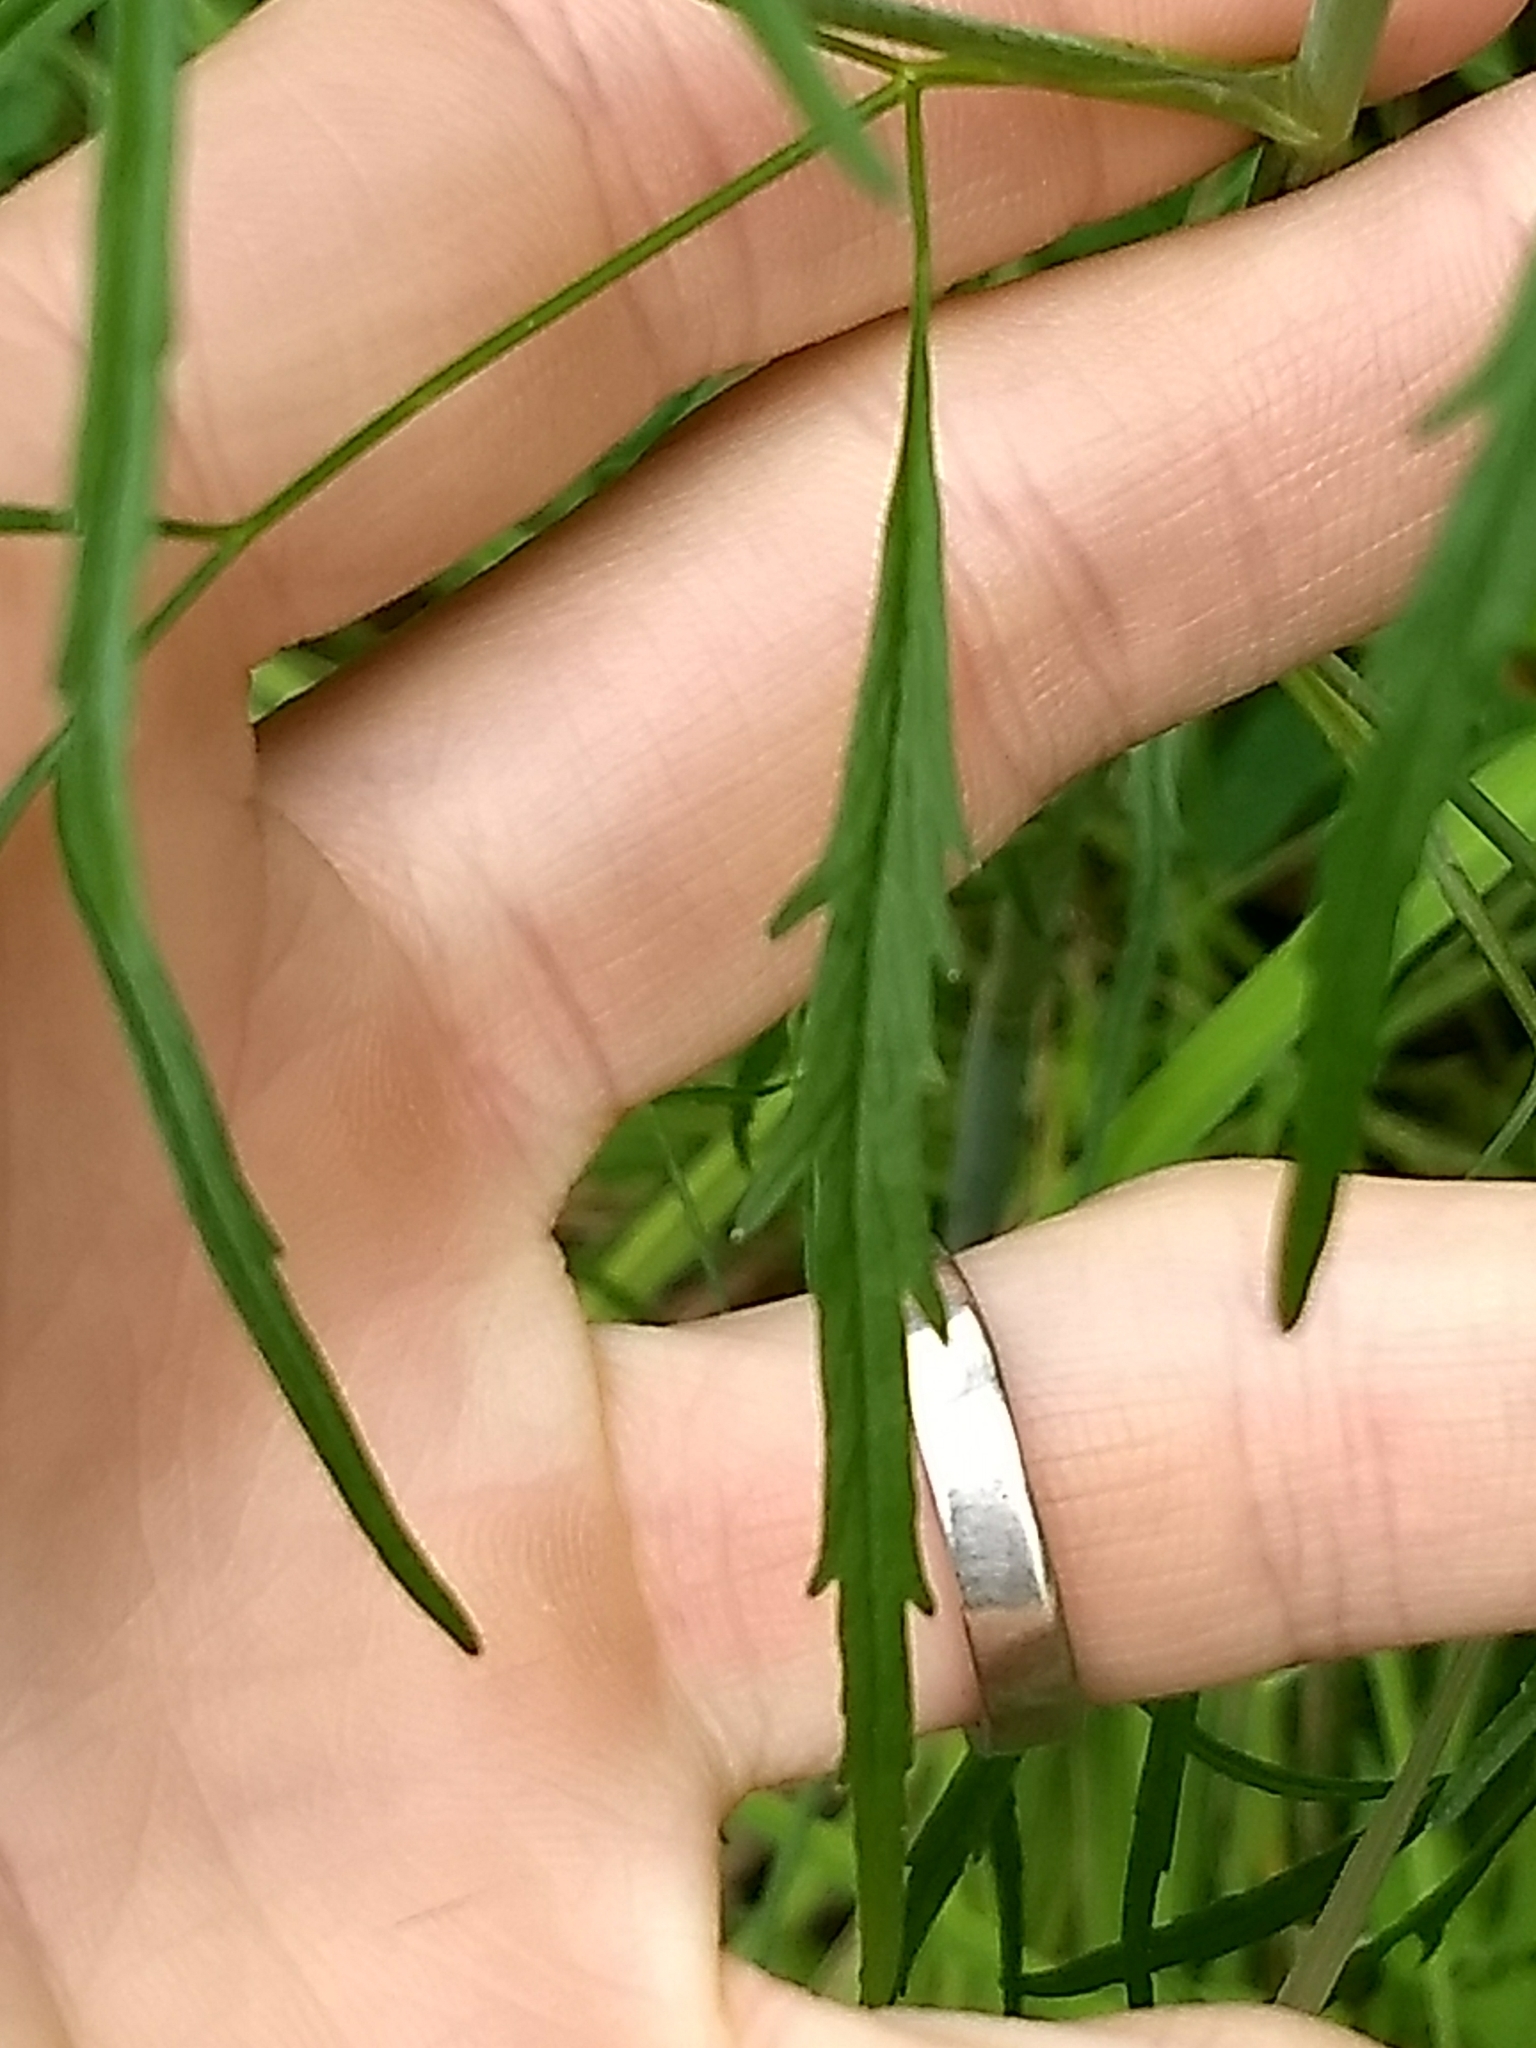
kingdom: Plantae
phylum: Tracheophyta
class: Magnoliopsida
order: Apiales
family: Apiaceae
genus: Cicuta
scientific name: Cicuta bulbifera
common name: Bulb-bearing water-hemlock
